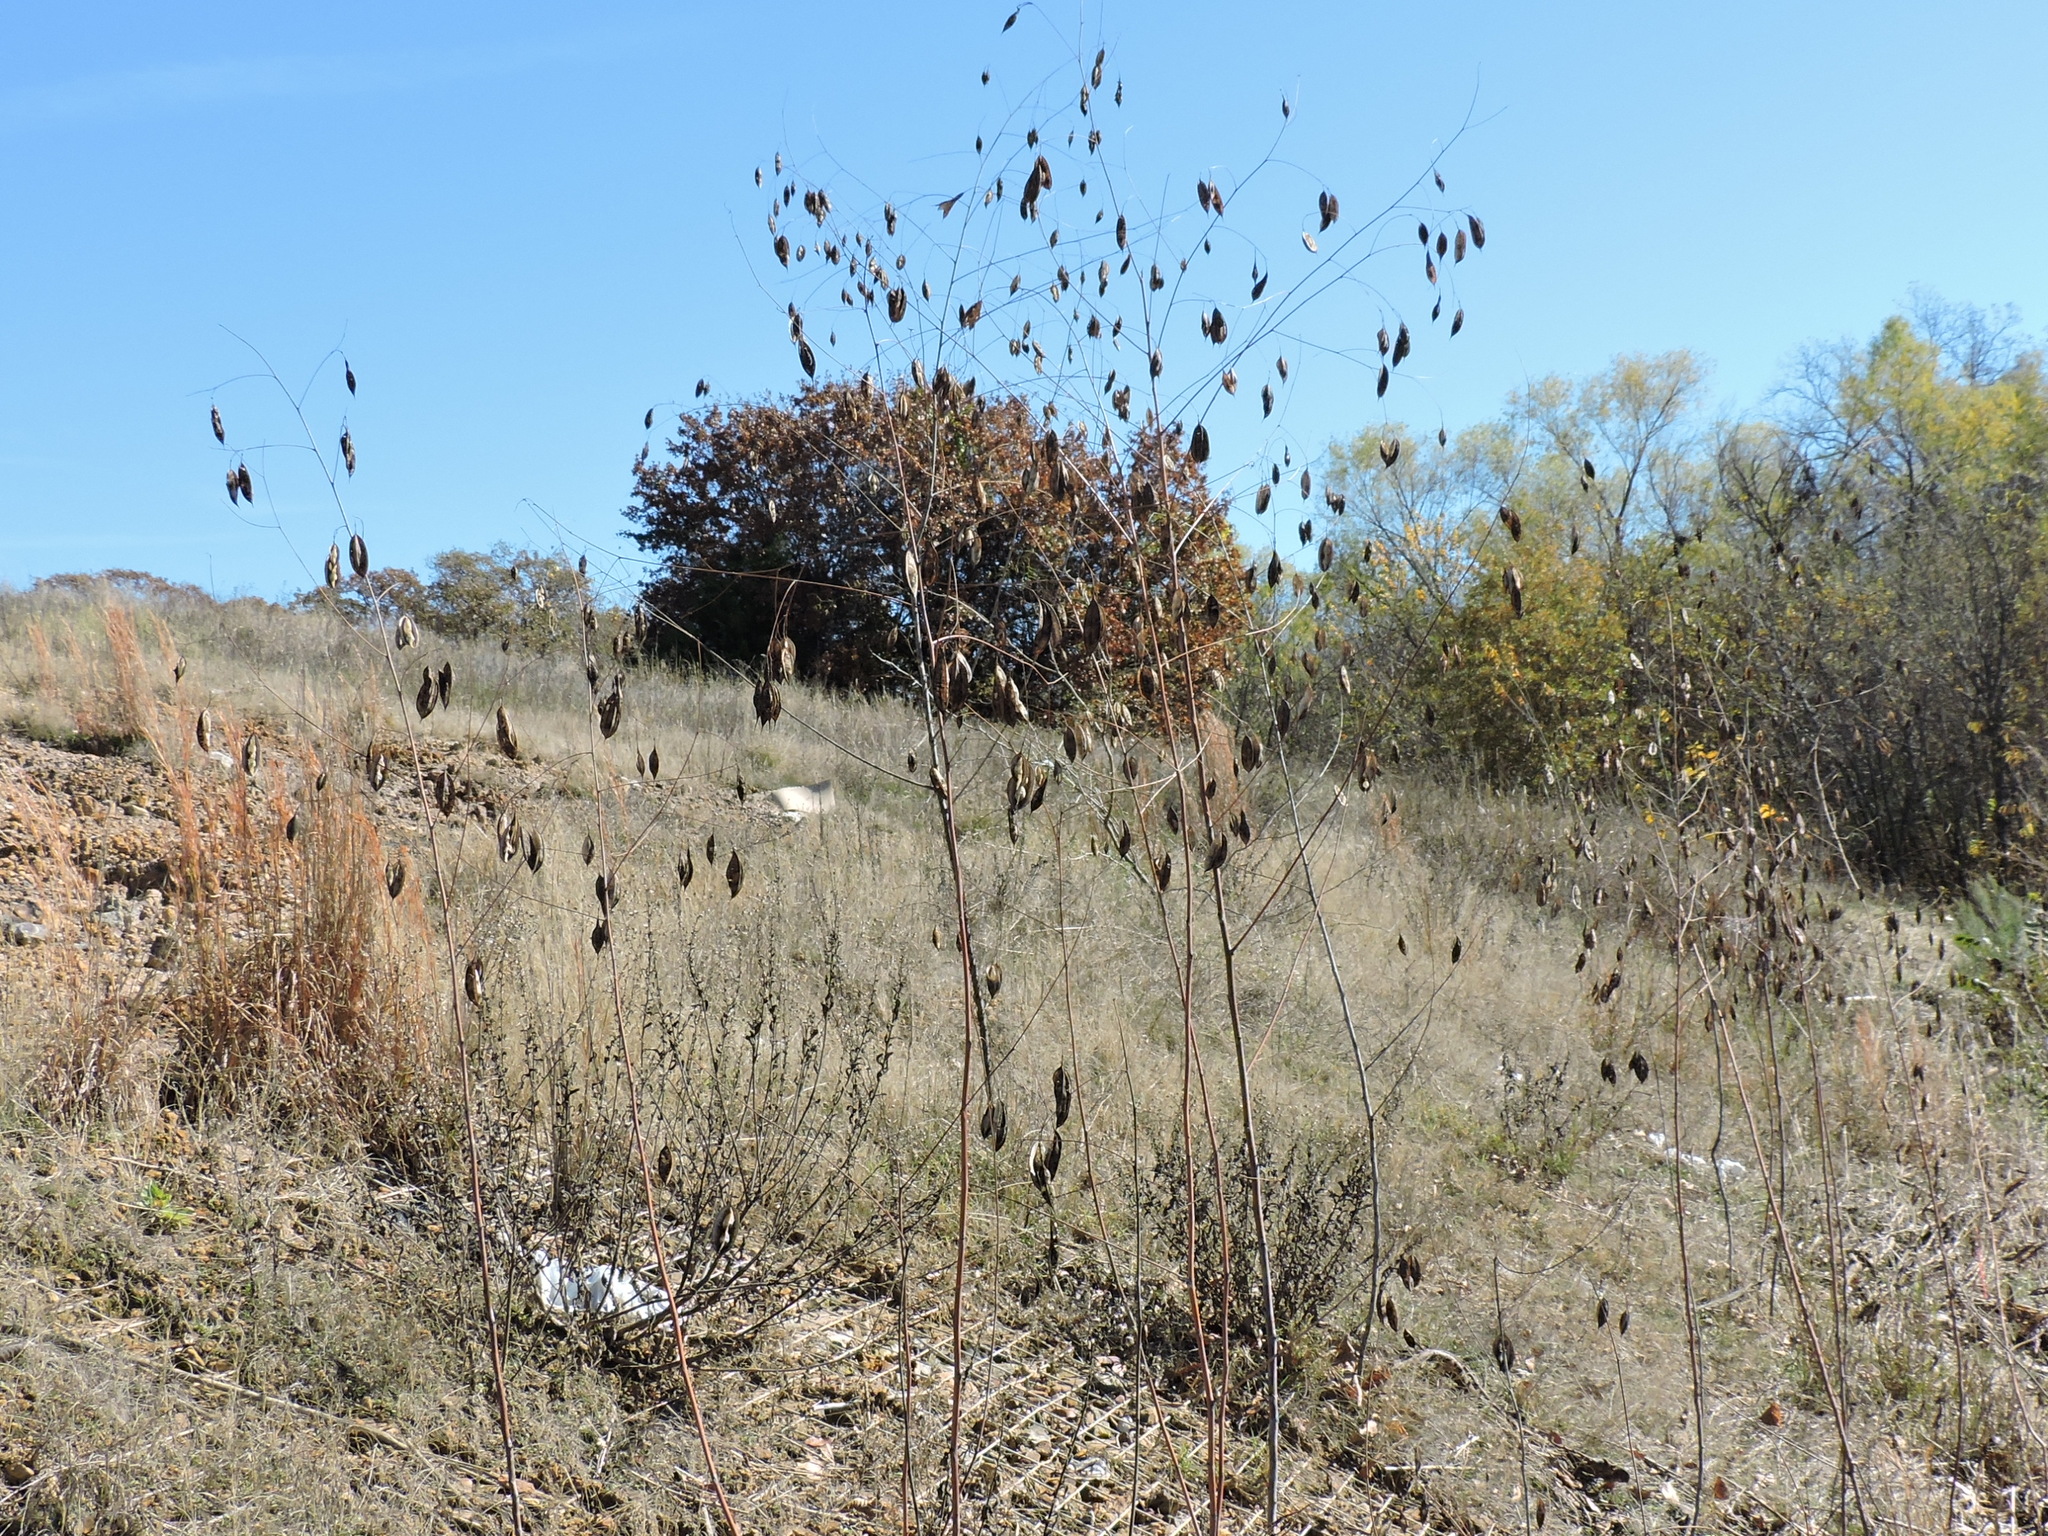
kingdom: Plantae
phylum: Tracheophyta
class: Magnoliopsida
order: Fabales
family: Fabaceae
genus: Sesbania
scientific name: Sesbania vesicaria
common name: Bagpod
